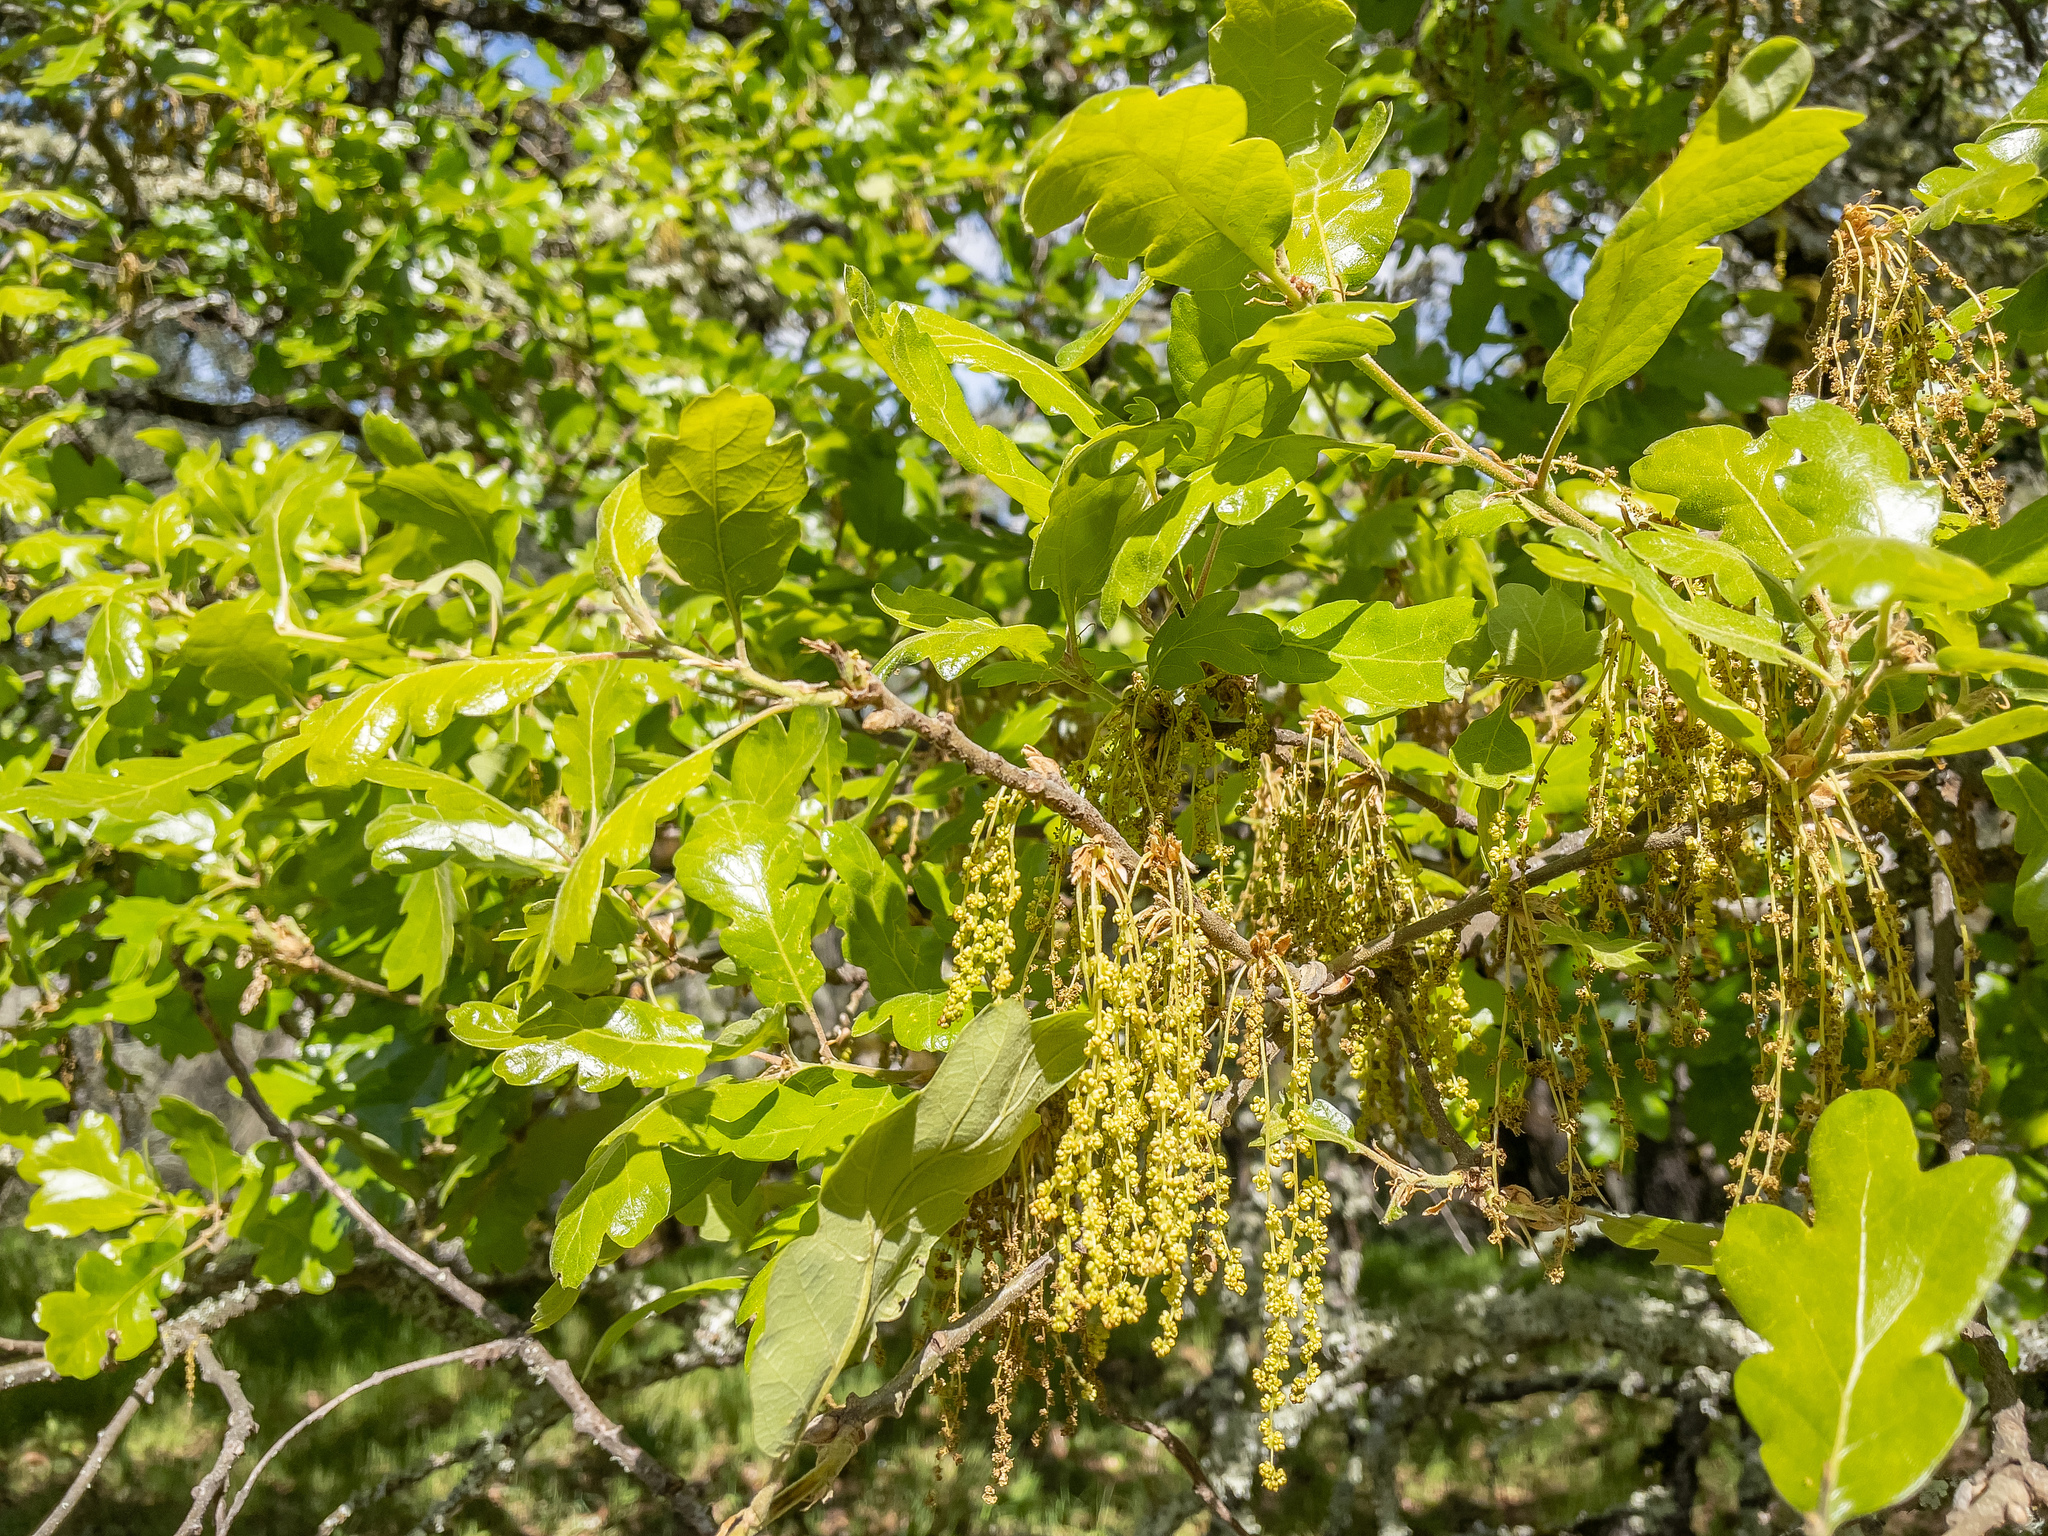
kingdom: Plantae
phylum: Tracheophyta
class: Magnoliopsida
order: Fagales
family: Fagaceae
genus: Quercus
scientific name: Quercus garryana
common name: Garry oak
